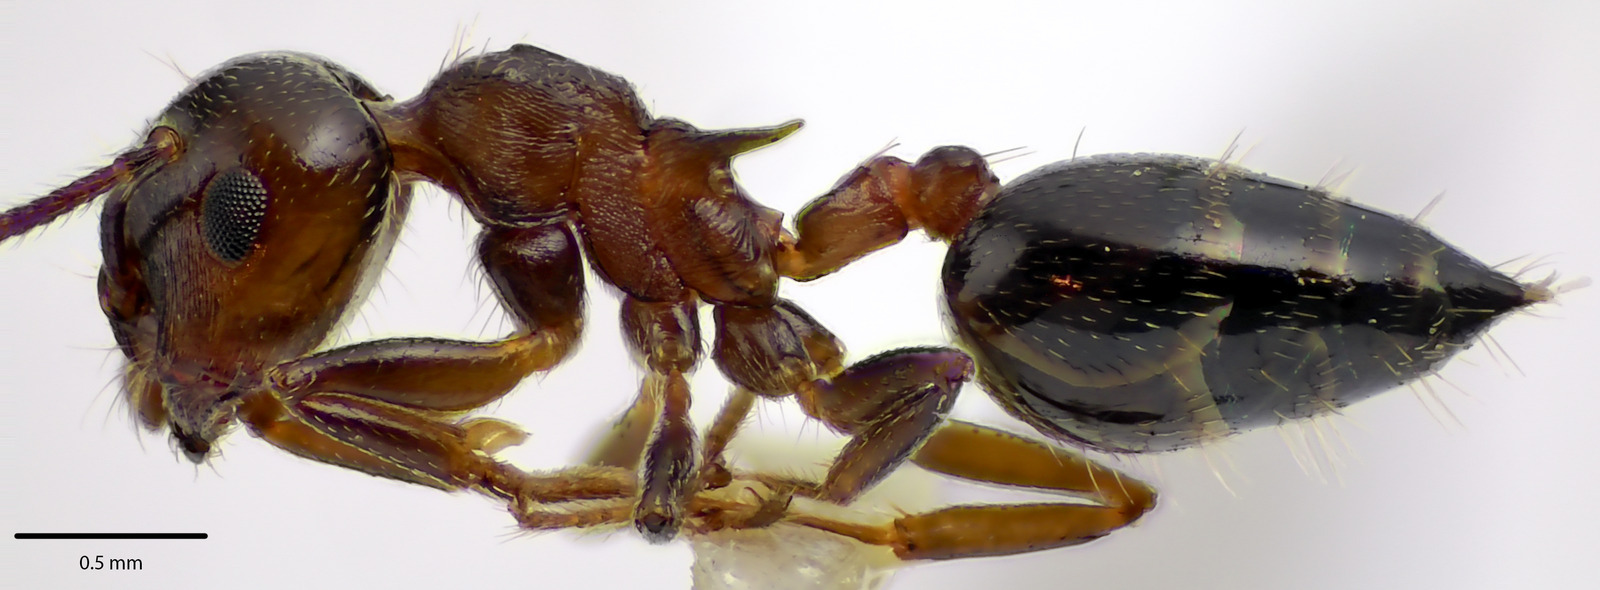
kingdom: Animalia
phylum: Arthropoda
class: Insecta
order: Hymenoptera
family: Formicidae
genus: Crematogaster
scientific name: Crematogaster cerasi
